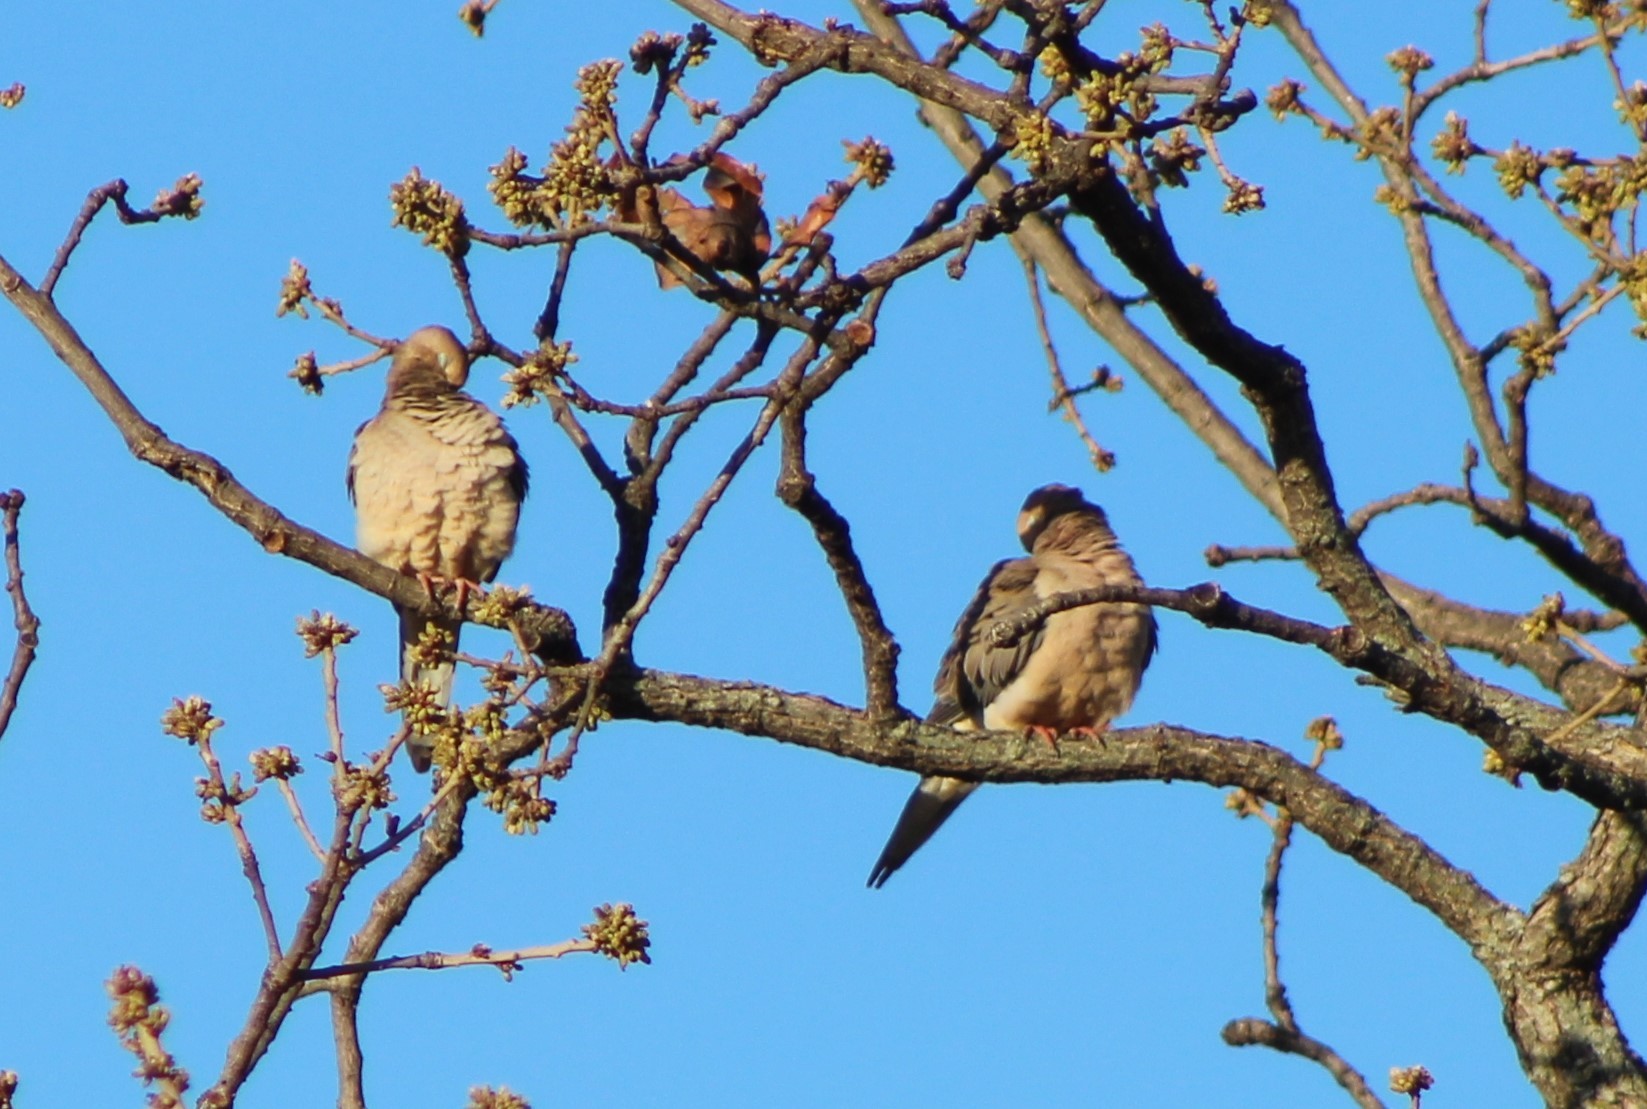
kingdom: Animalia
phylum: Chordata
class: Aves
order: Columbiformes
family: Columbidae
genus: Zenaida
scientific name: Zenaida macroura
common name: Mourning dove
